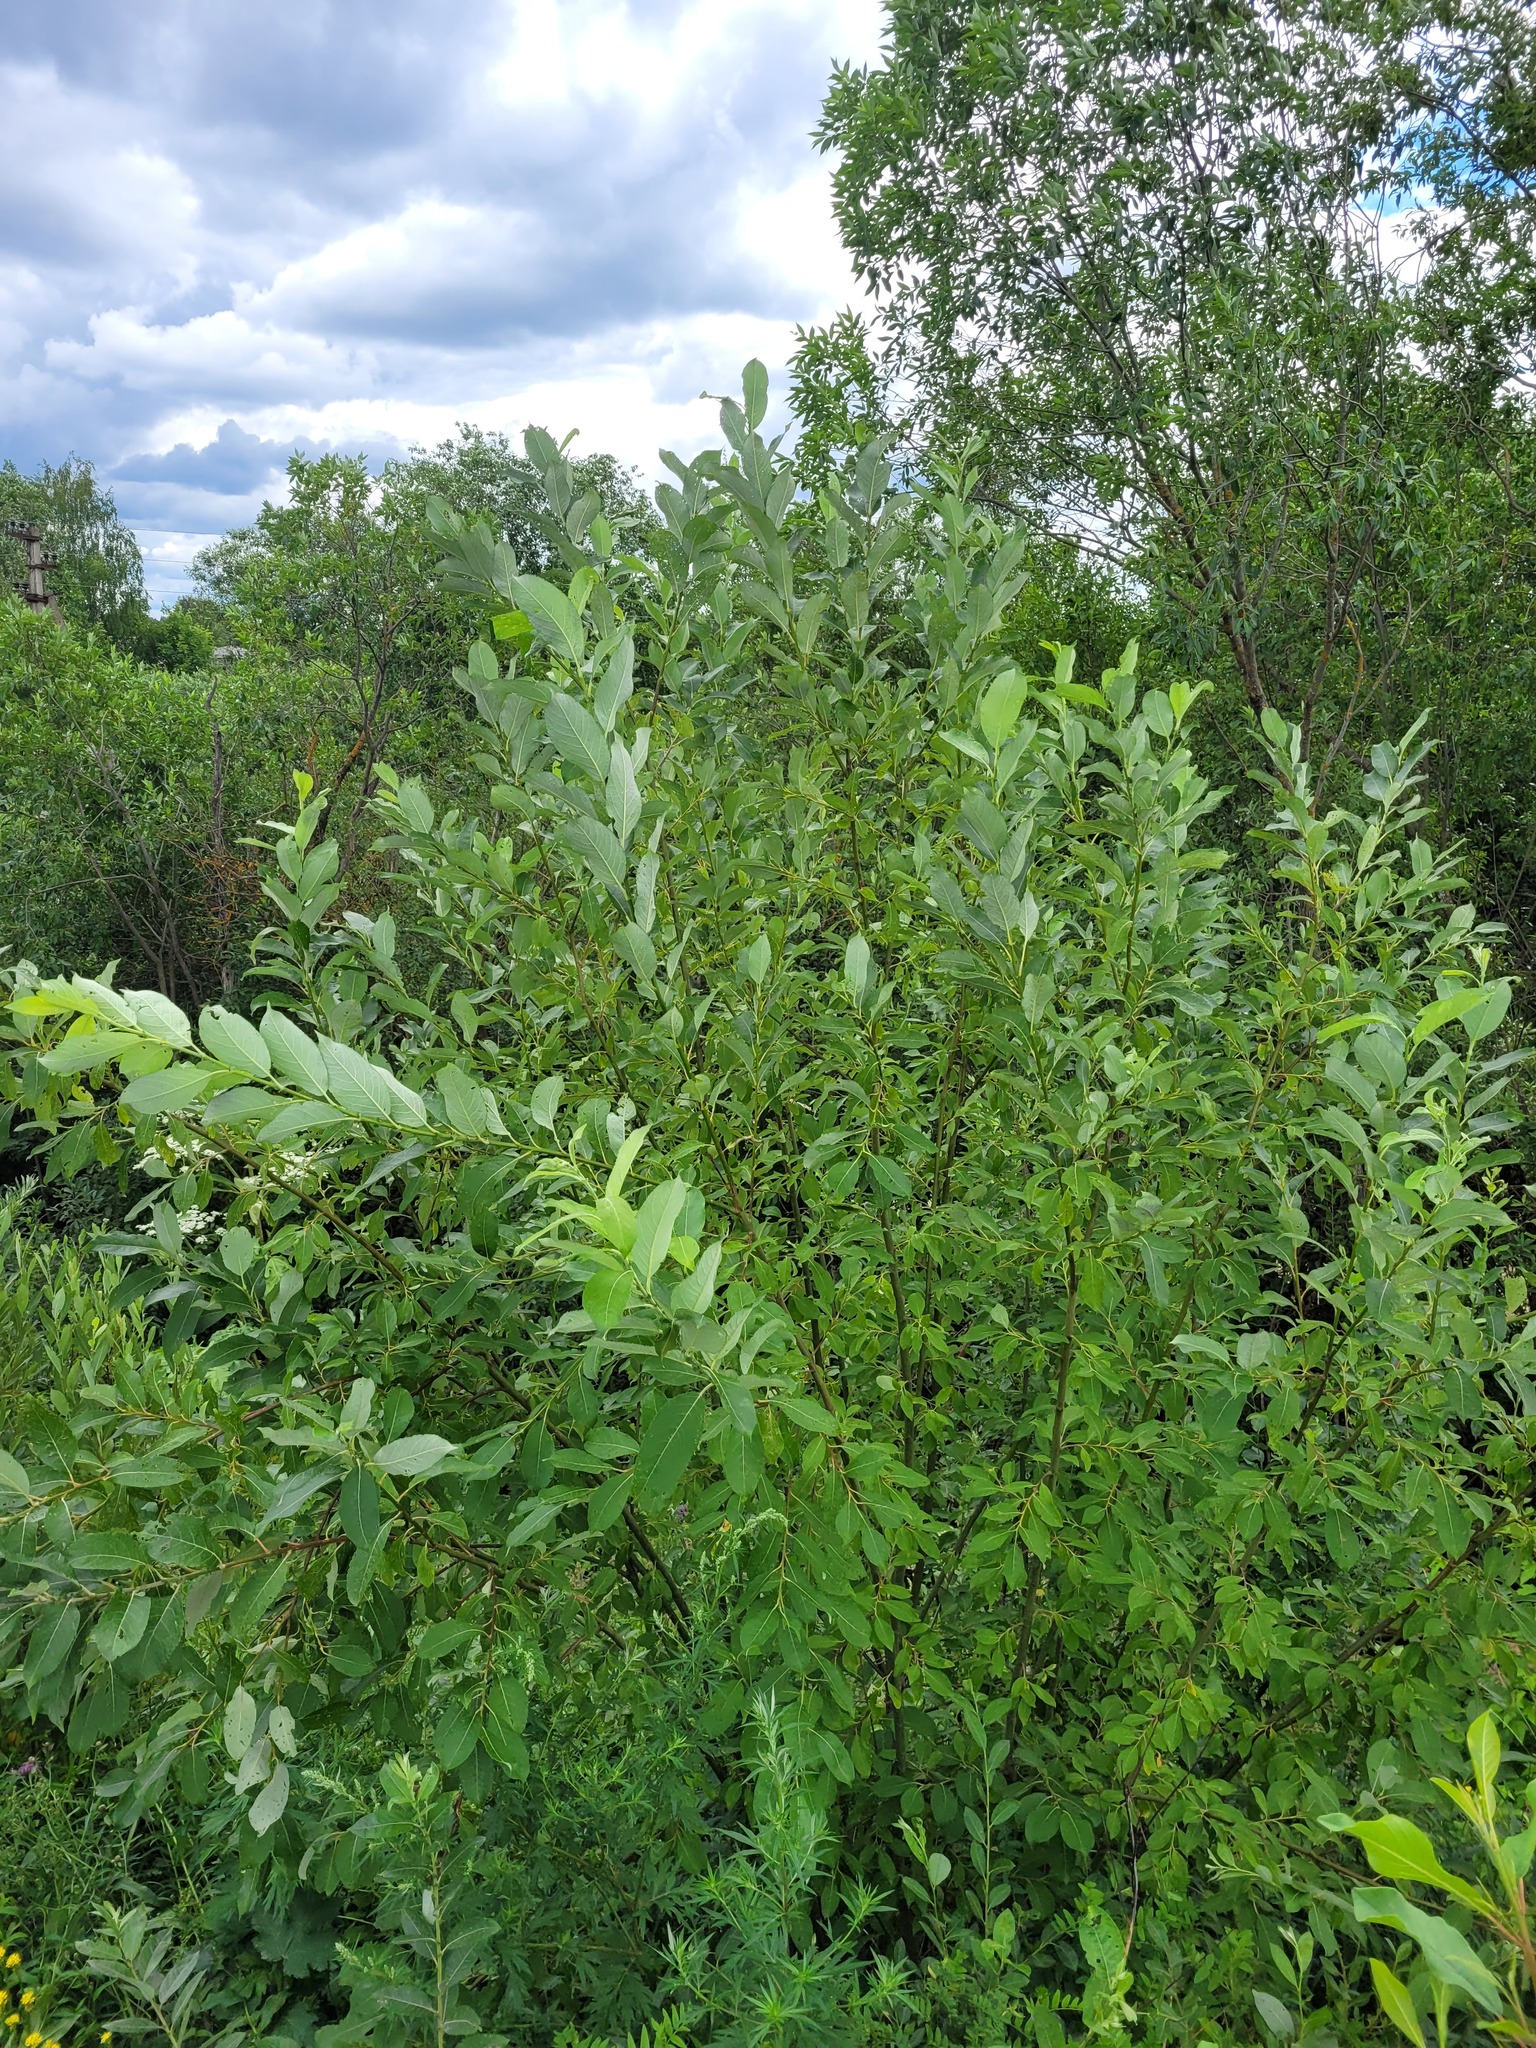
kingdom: Plantae
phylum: Tracheophyta
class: Magnoliopsida
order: Malpighiales
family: Salicaceae
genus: Salix
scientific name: Salix caprea
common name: Goat willow
